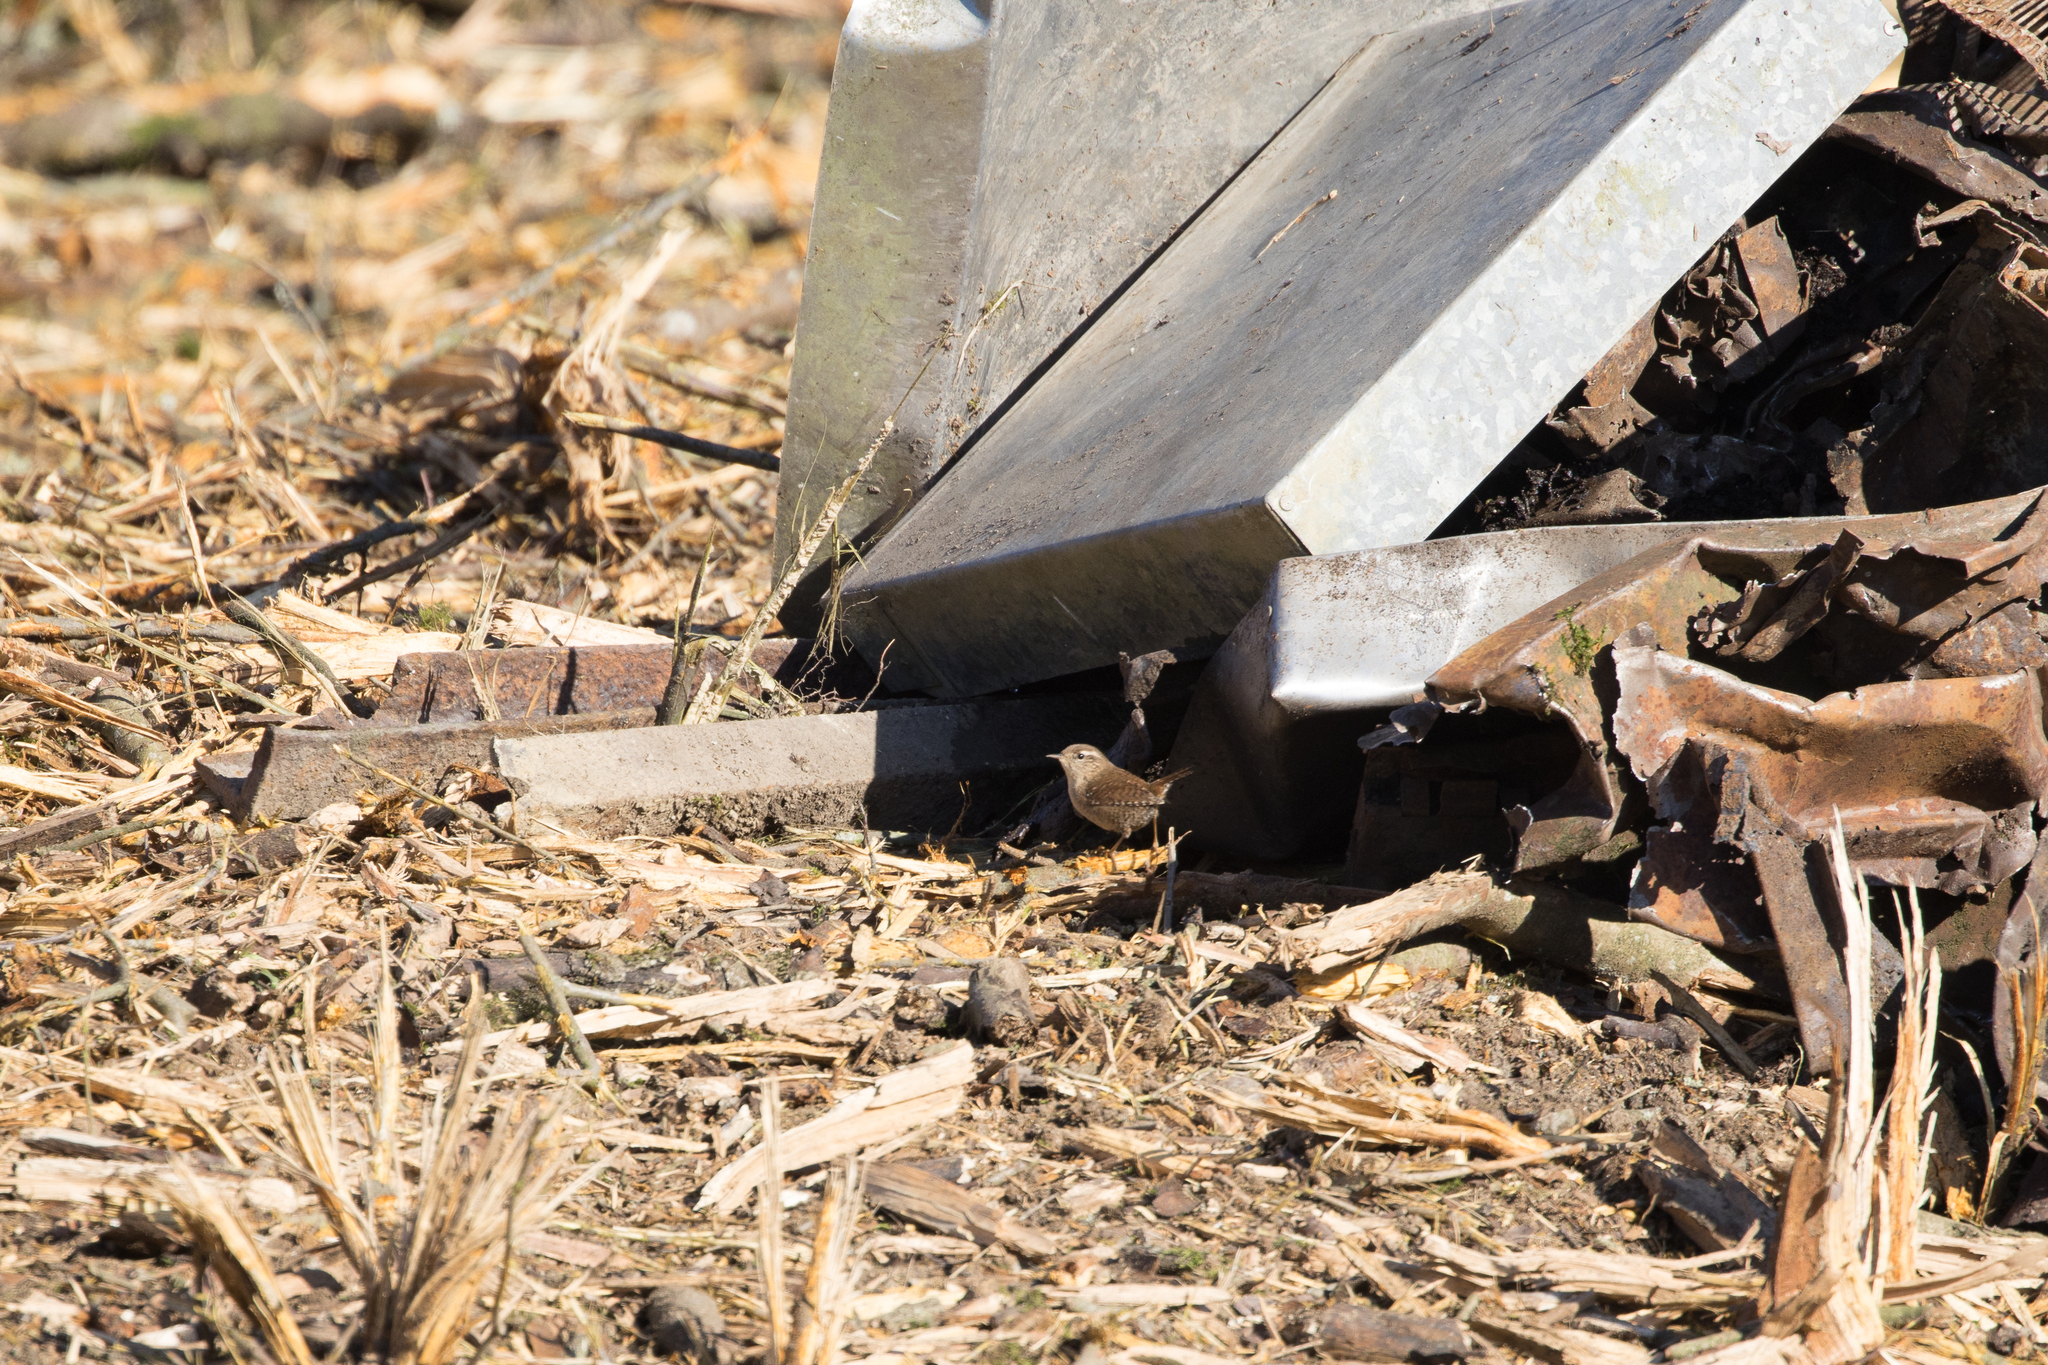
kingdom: Animalia
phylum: Chordata
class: Aves
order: Passeriformes
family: Troglodytidae
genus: Troglodytes
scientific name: Troglodytes troglodytes
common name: Eurasian wren
